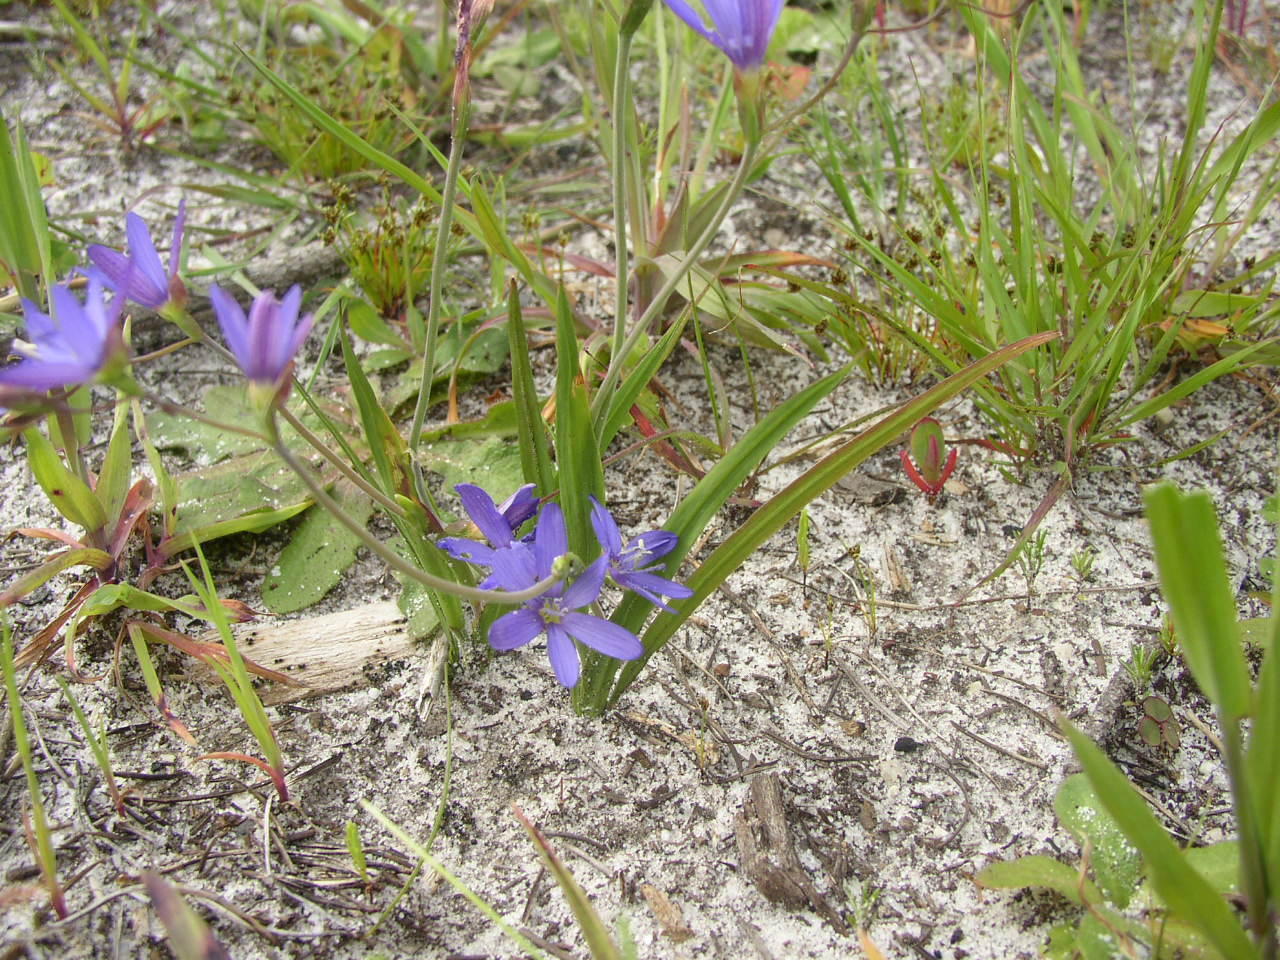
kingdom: Plantae
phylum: Tracheophyta
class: Liliopsida
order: Asparagales
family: Iridaceae
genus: Geissorhiza
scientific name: Geissorhiza aspera
